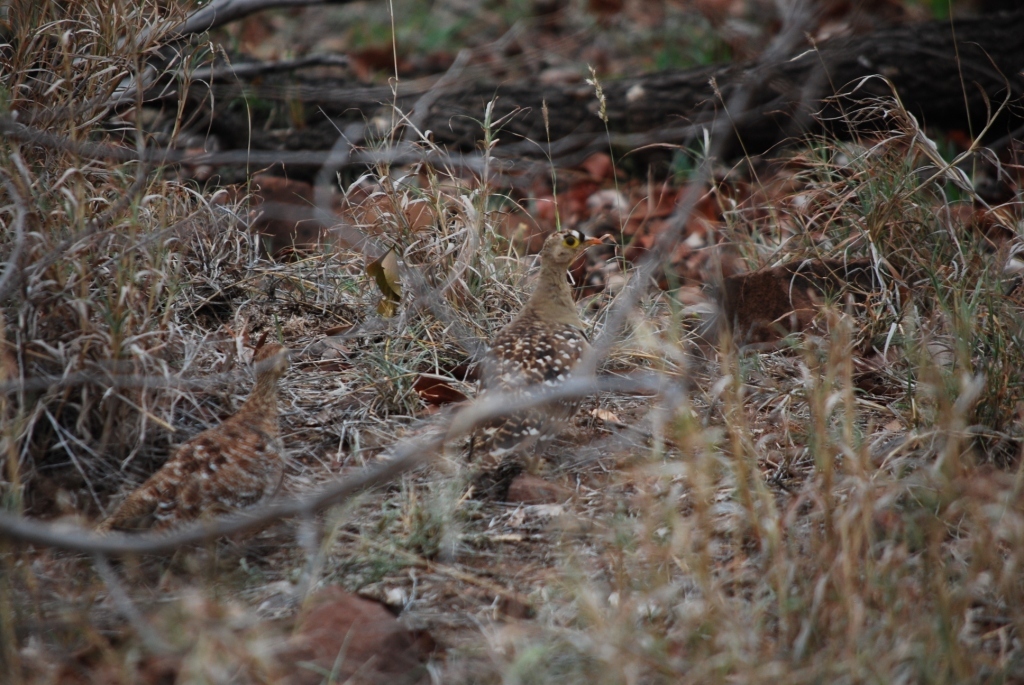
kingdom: Animalia
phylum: Chordata
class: Aves
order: Pteroclidiformes
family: Pteroclididae
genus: Pterocles
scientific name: Pterocles bicinctus
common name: Double-banded sandgrouse
